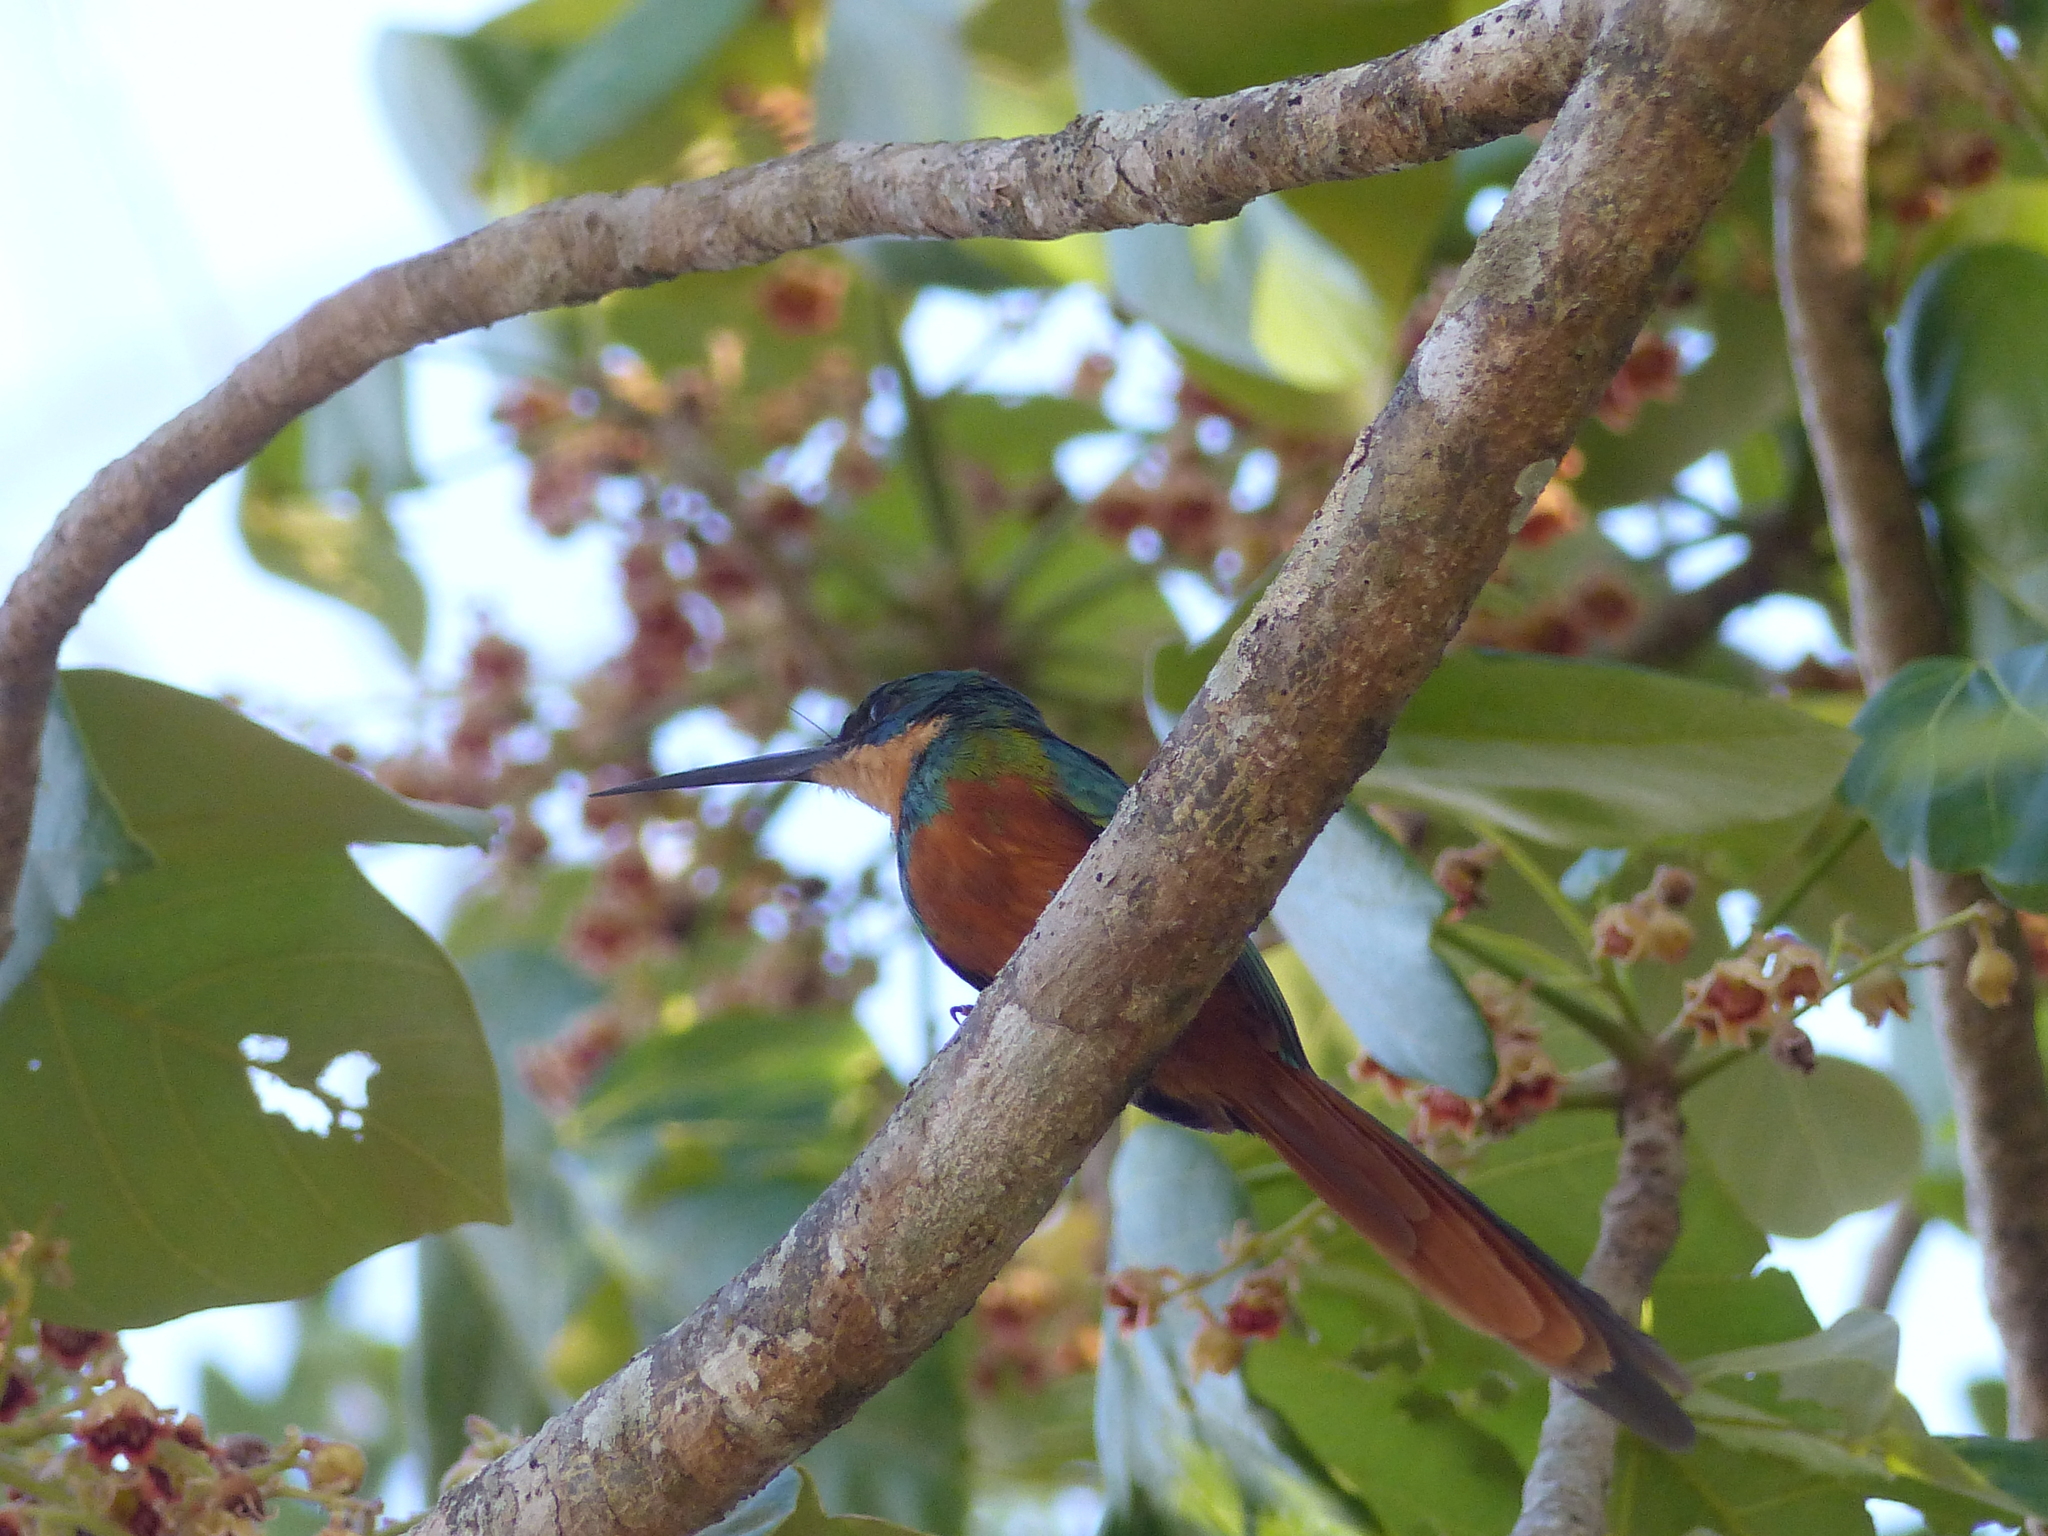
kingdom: Animalia
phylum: Chordata
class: Aves
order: Piciformes
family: Galbulidae
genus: Galbula
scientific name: Galbula ruficauda
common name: Rufous-tailed jacamar
